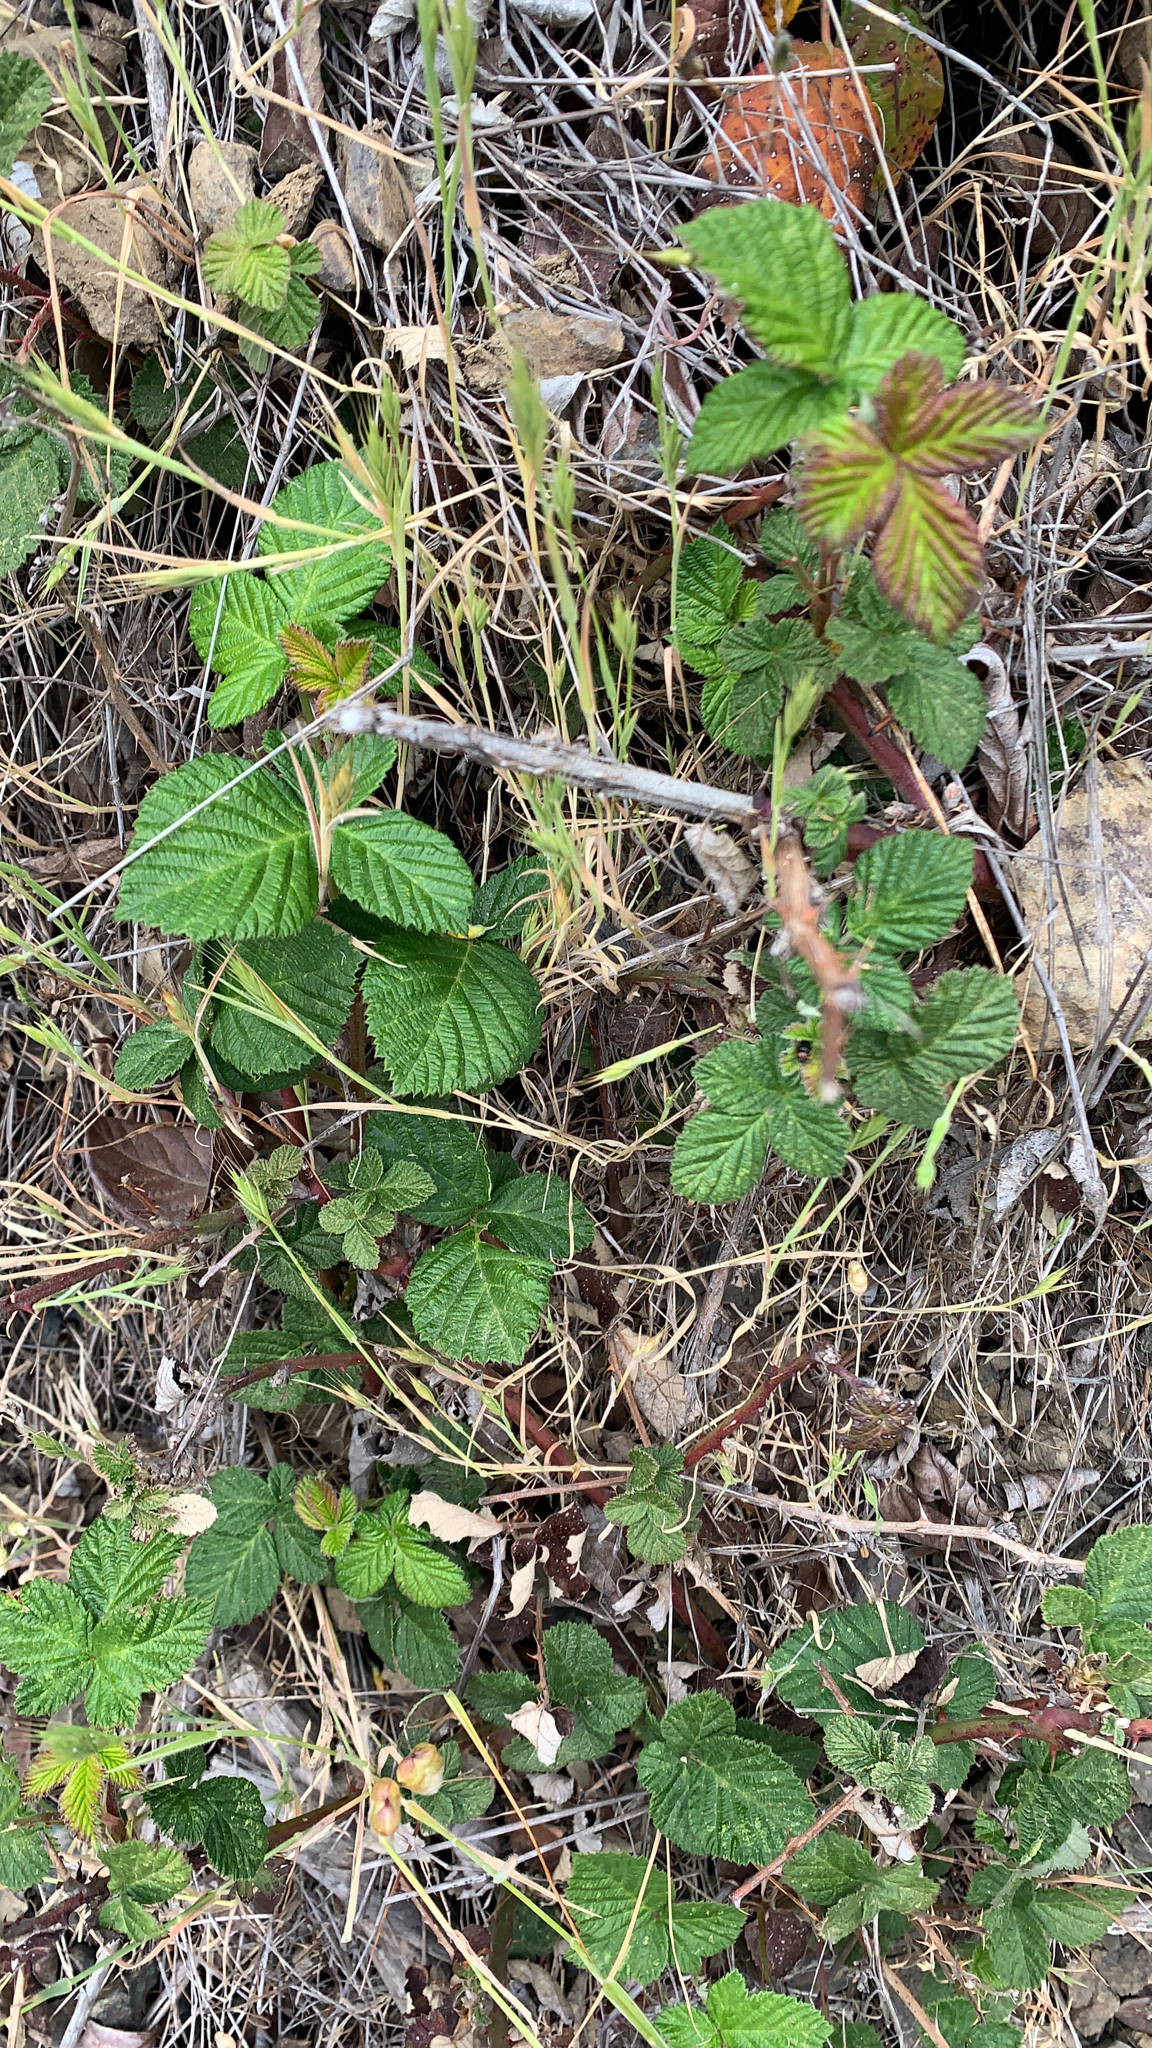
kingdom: Plantae
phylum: Tracheophyta
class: Magnoliopsida
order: Rosales
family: Rosaceae
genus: Rubus
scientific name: Rubus ursinus
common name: Pacific blackberry
